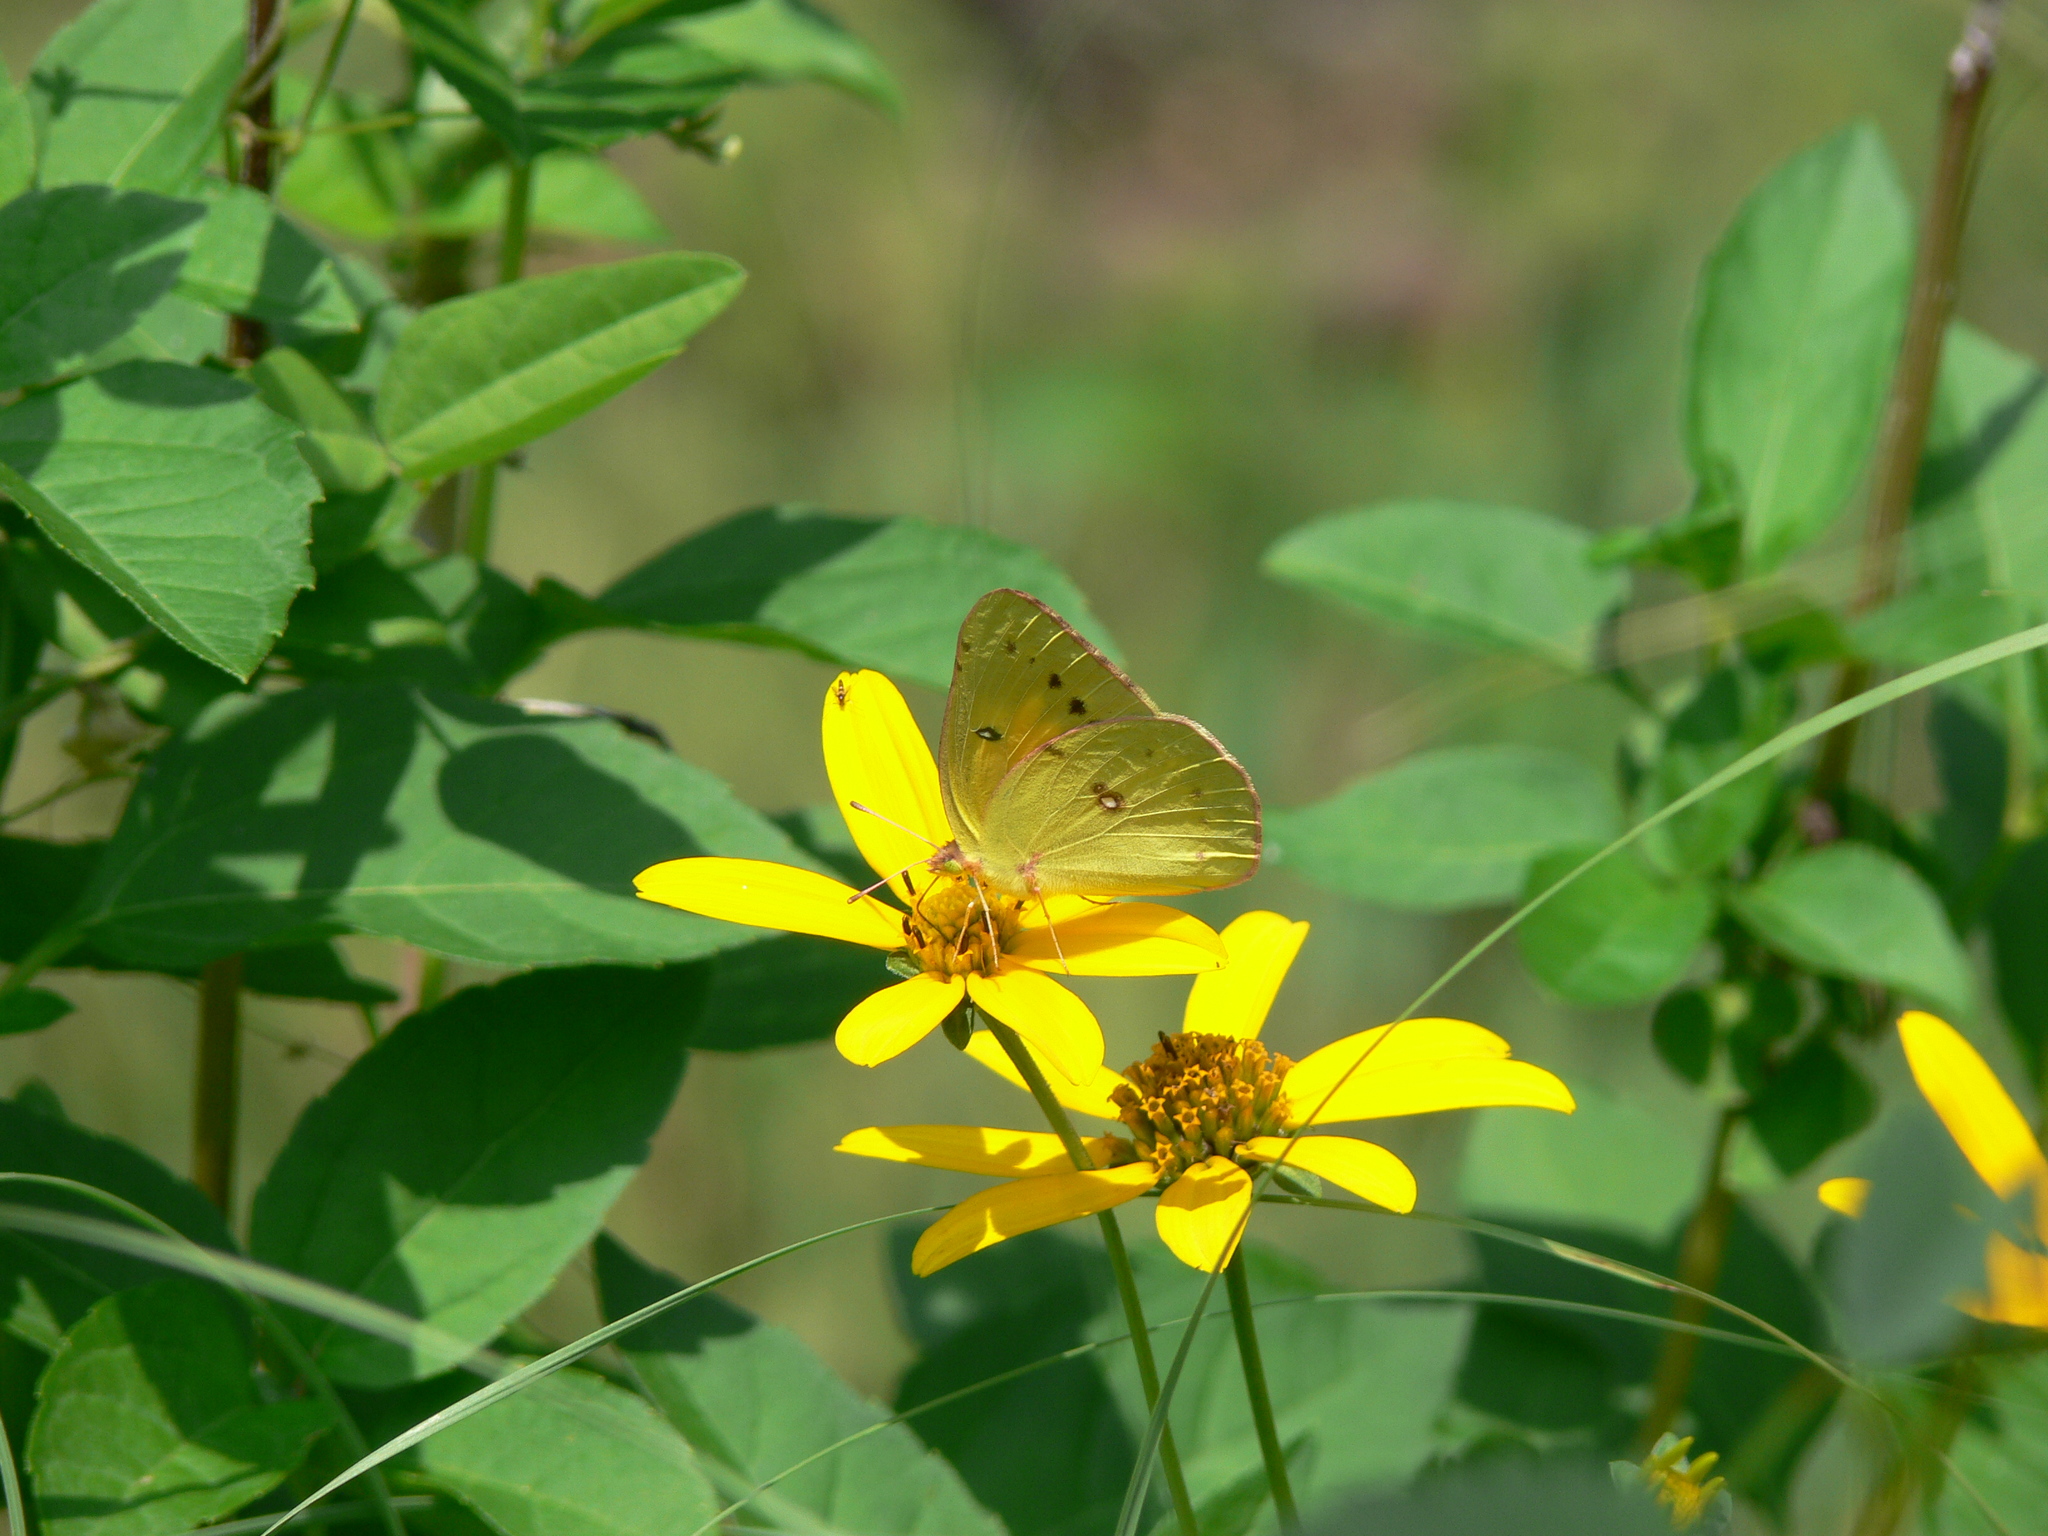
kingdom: Animalia
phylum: Arthropoda
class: Insecta
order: Lepidoptera
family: Pieridae
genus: Colias
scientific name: Colias eurytheme
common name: Alfalfa butterfly
